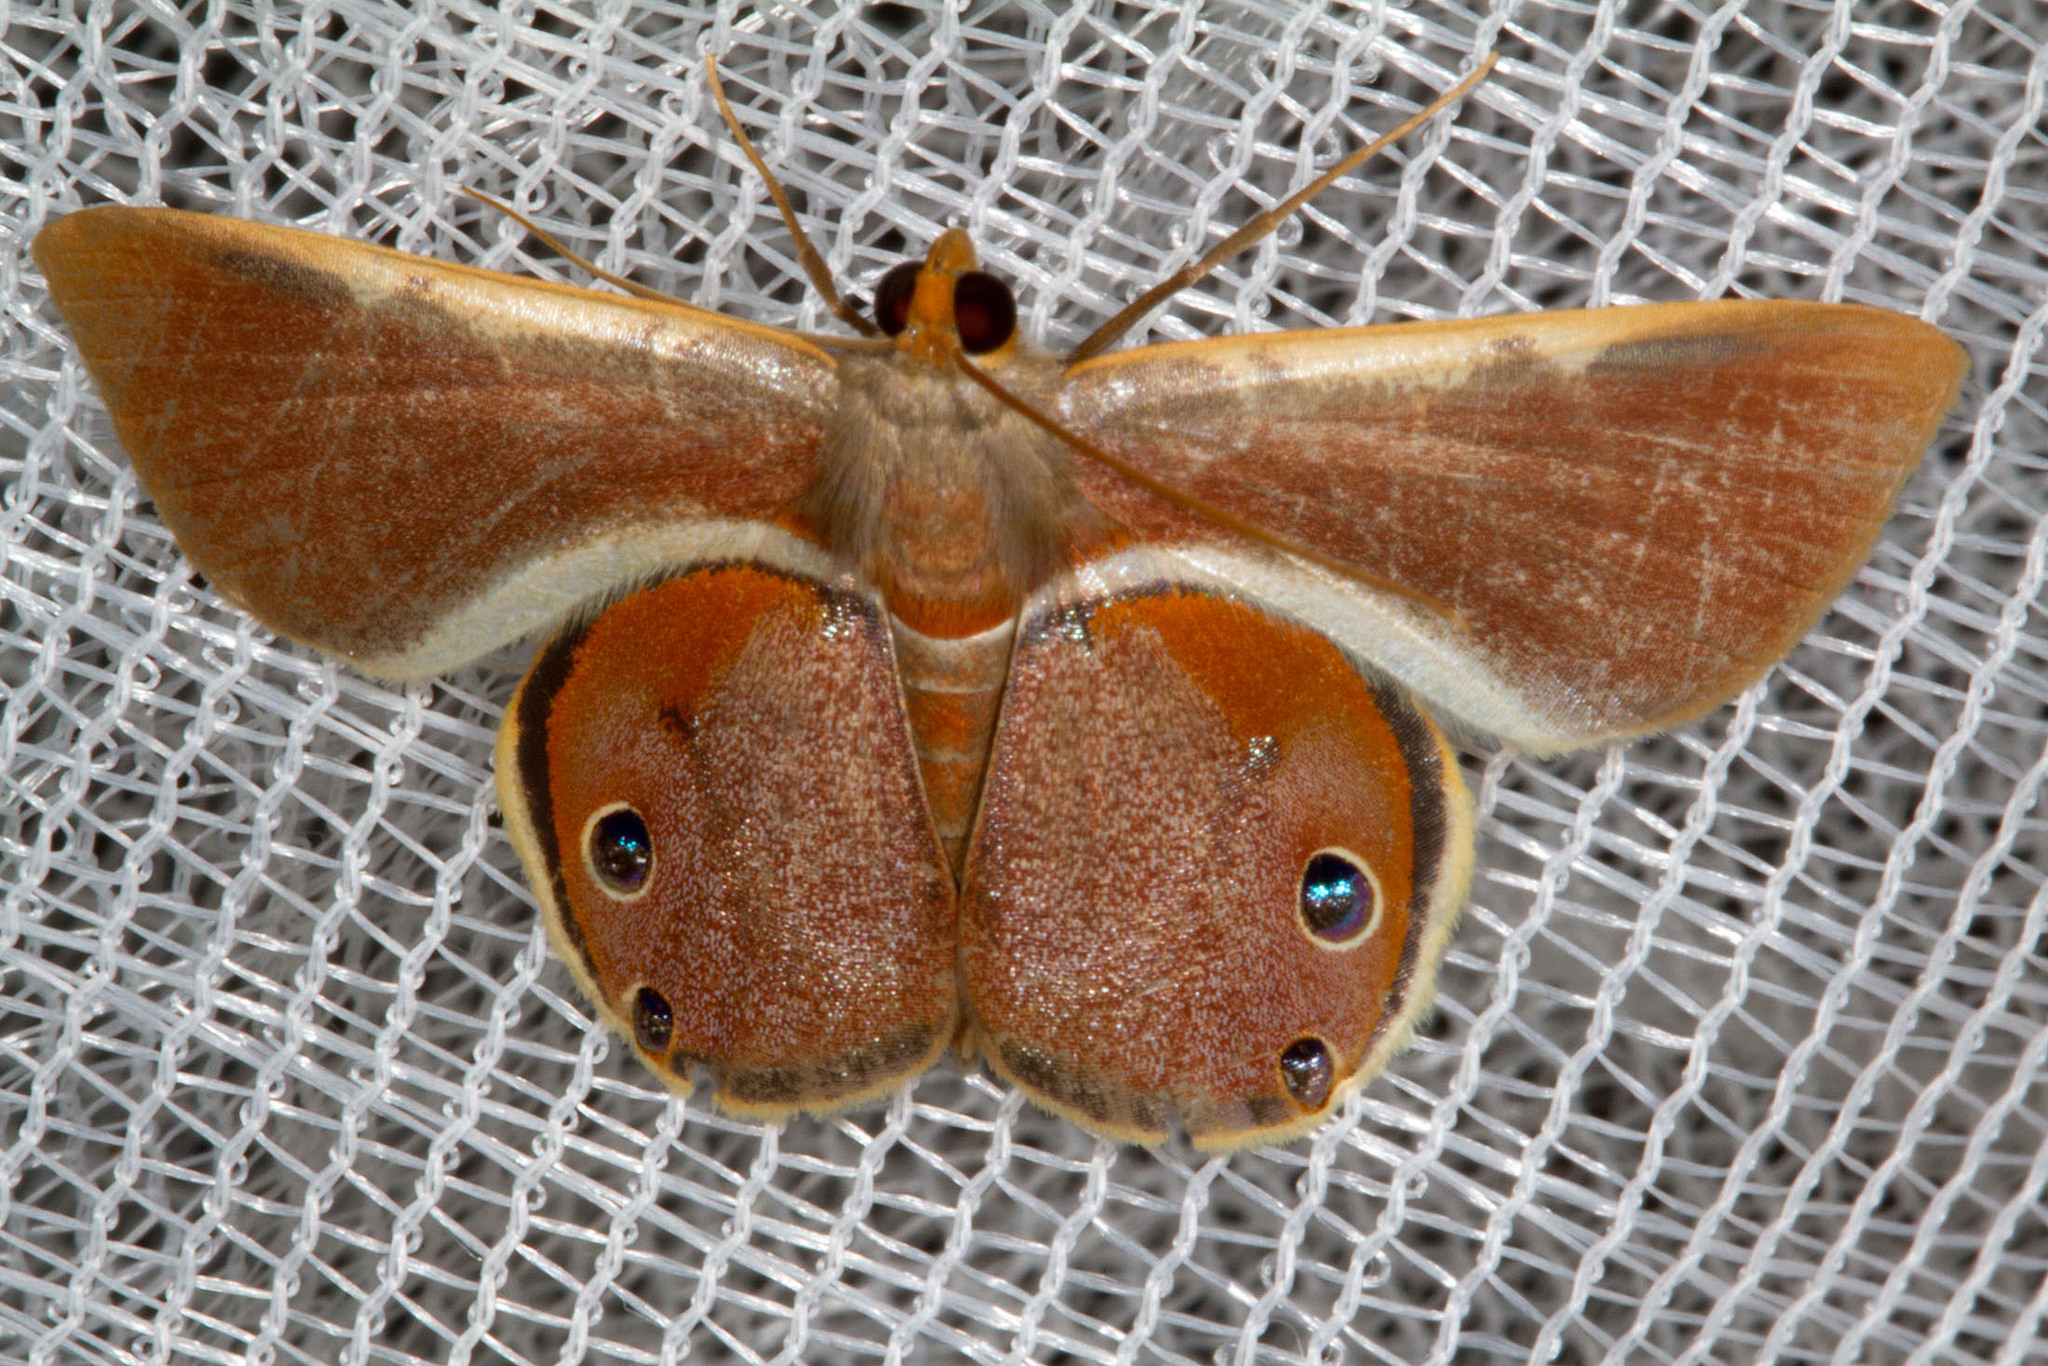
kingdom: Animalia
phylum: Arthropoda
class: Insecta
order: Lepidoptera
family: Geometridae
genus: Opisthoxia
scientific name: Opisthoxia eusiraria
